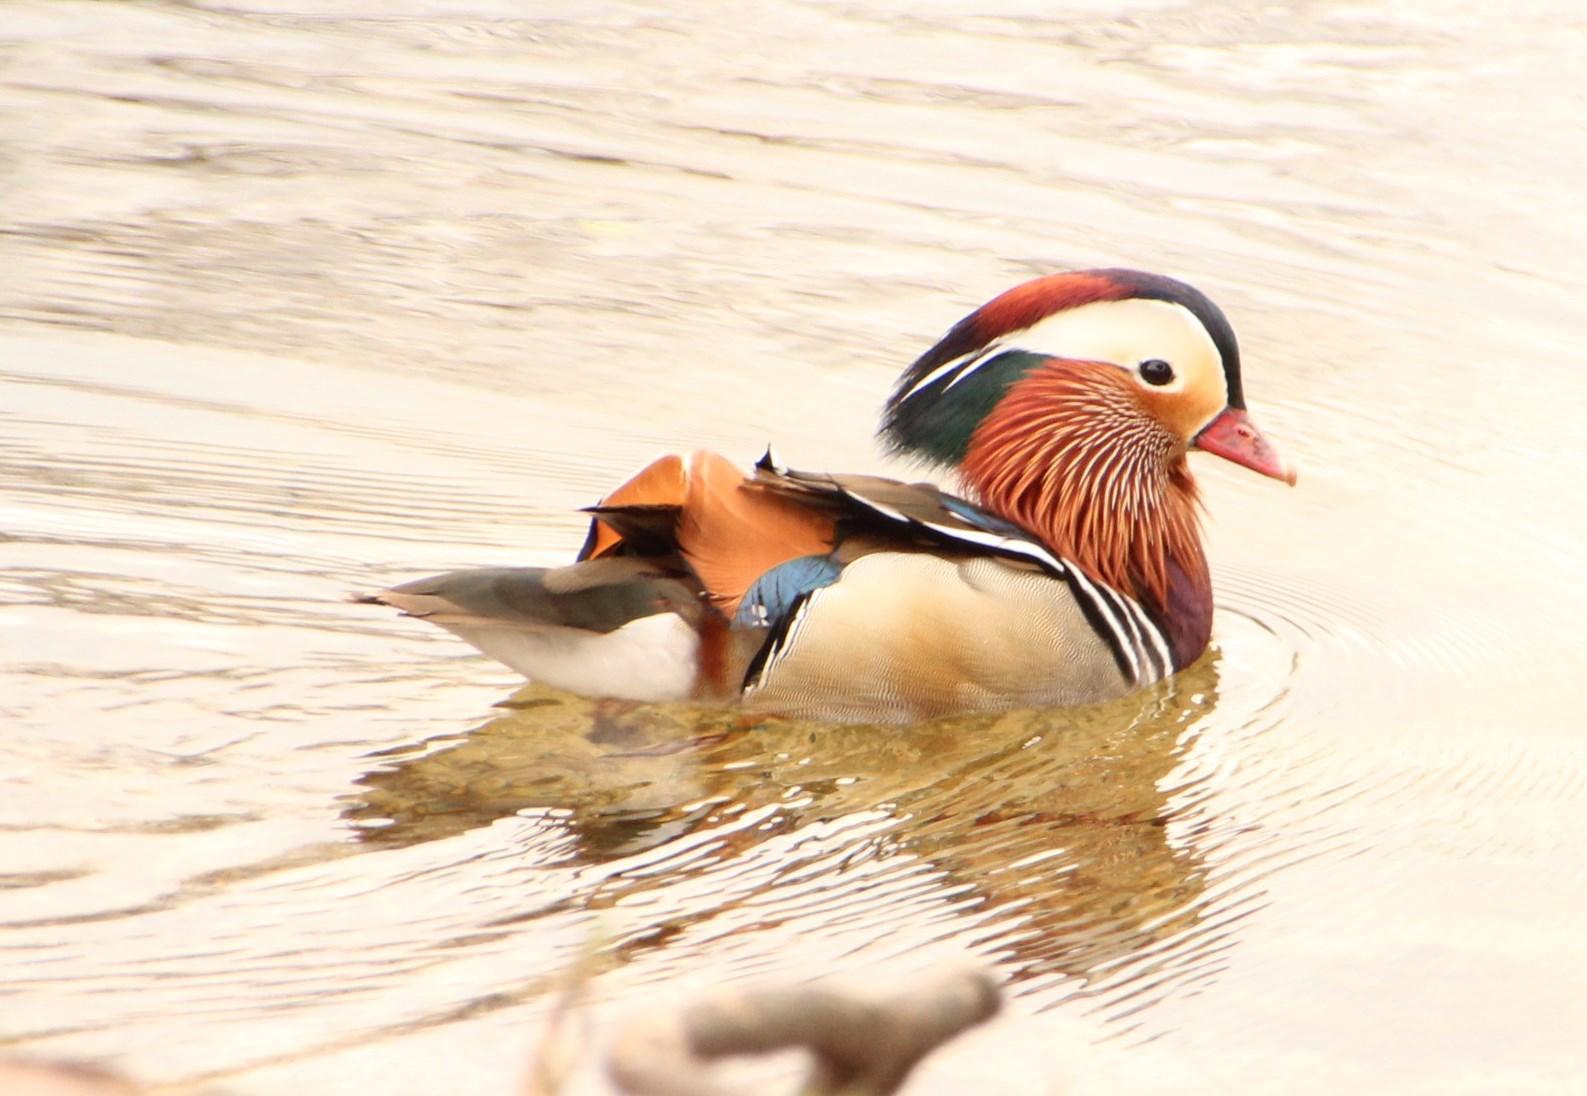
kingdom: Animalia
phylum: Chordata
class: Aves
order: Anseriformes
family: Anatidae
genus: Aix
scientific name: Aix galericulata
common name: Mandarin duck
